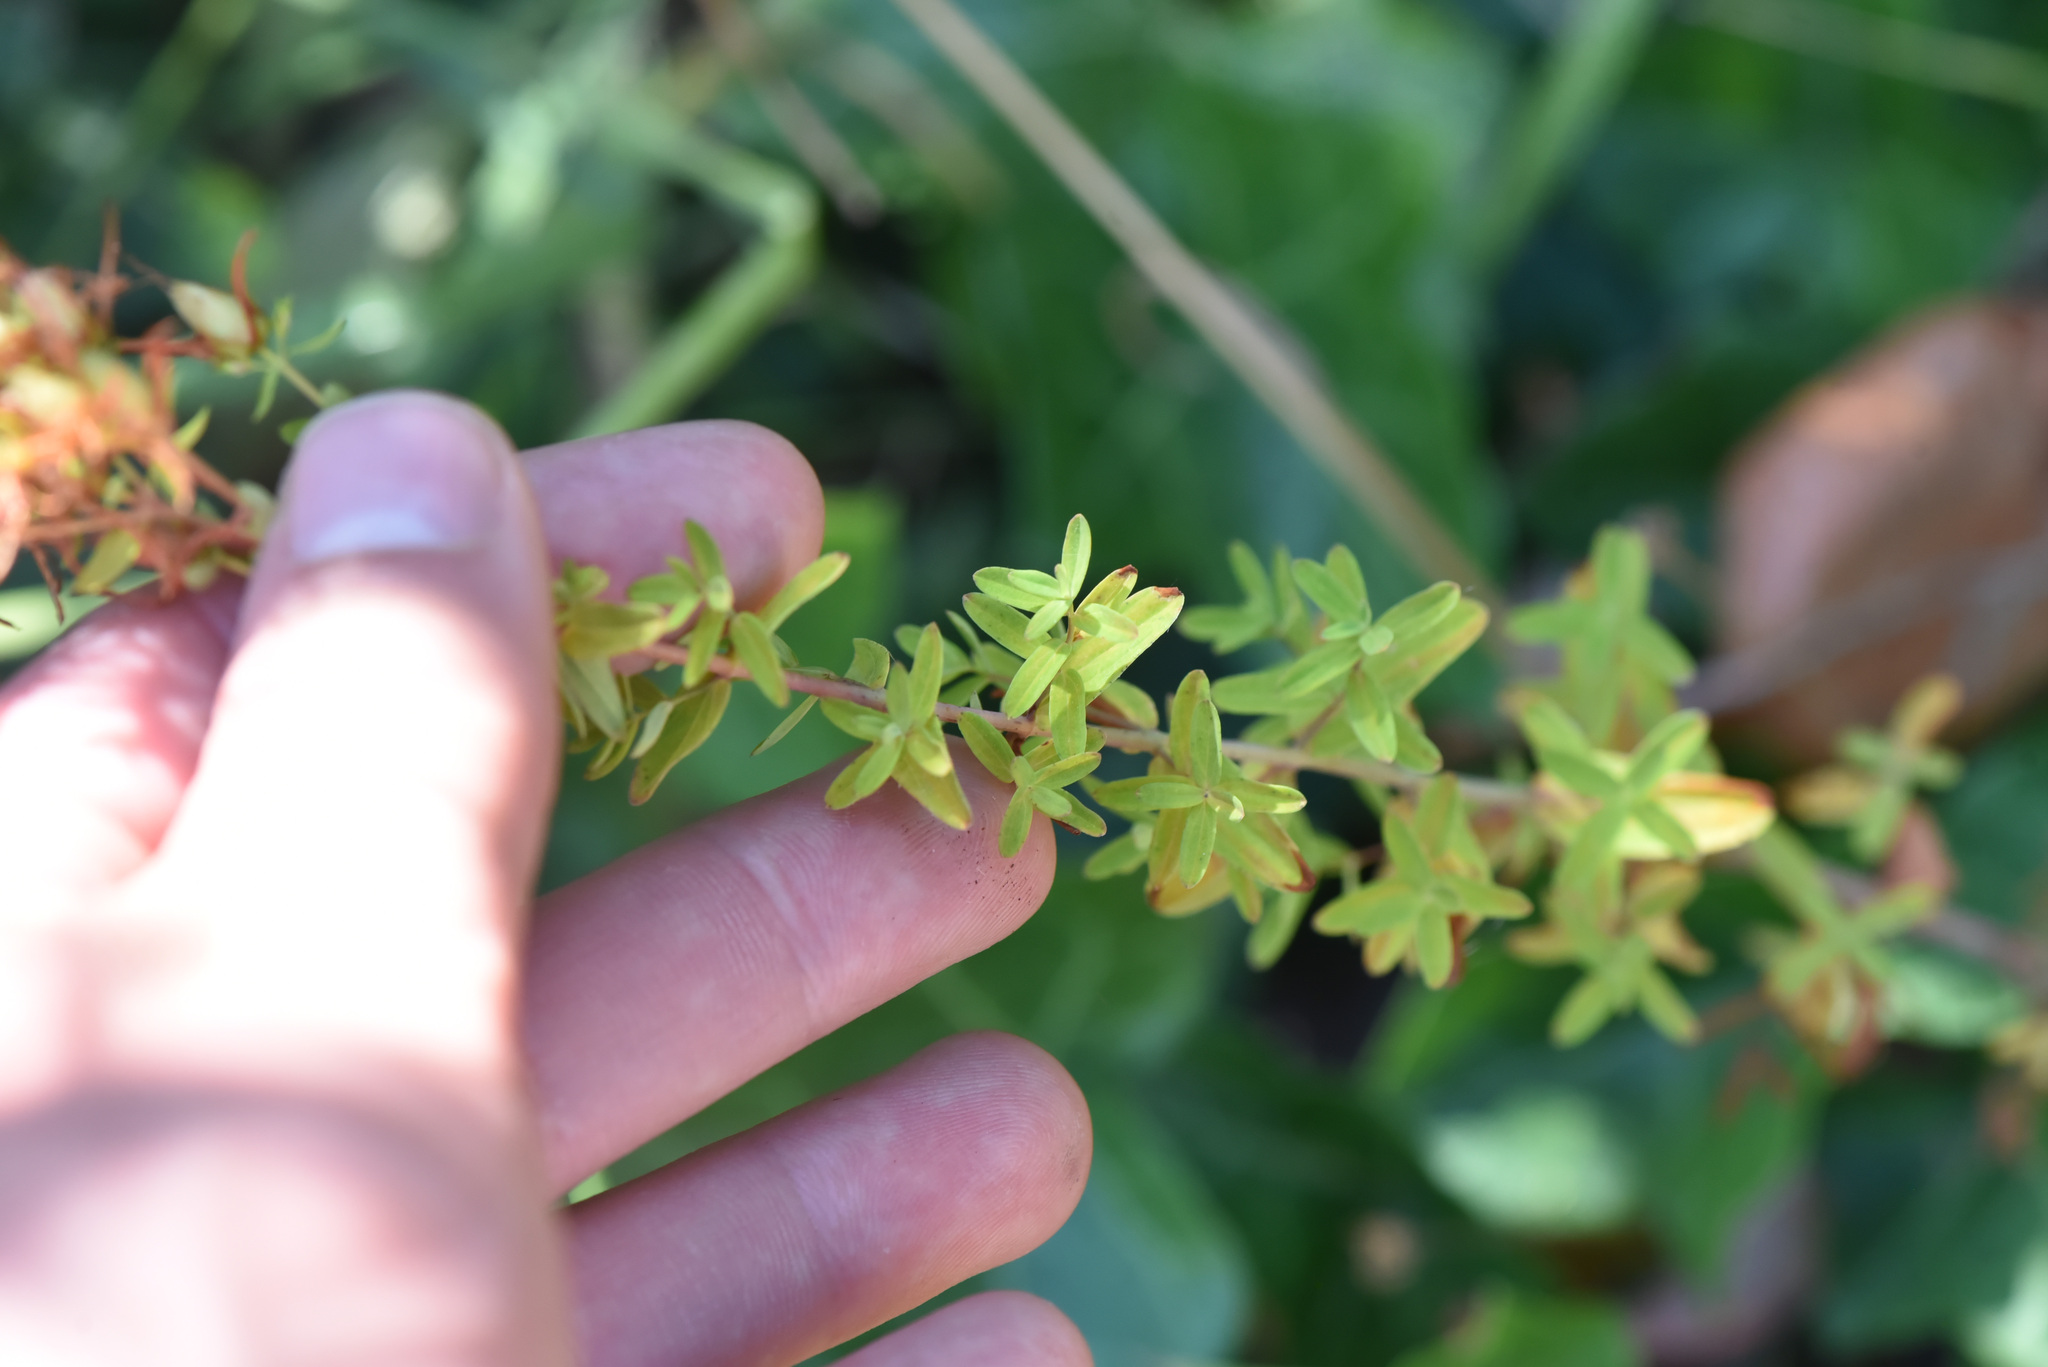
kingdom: Plantae
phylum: Tracheophyta
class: Magnoliopsida
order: Malpighiales
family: Hypericaceae
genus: Hypericum
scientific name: Hypericum perforatum
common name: Common st. johnswort
